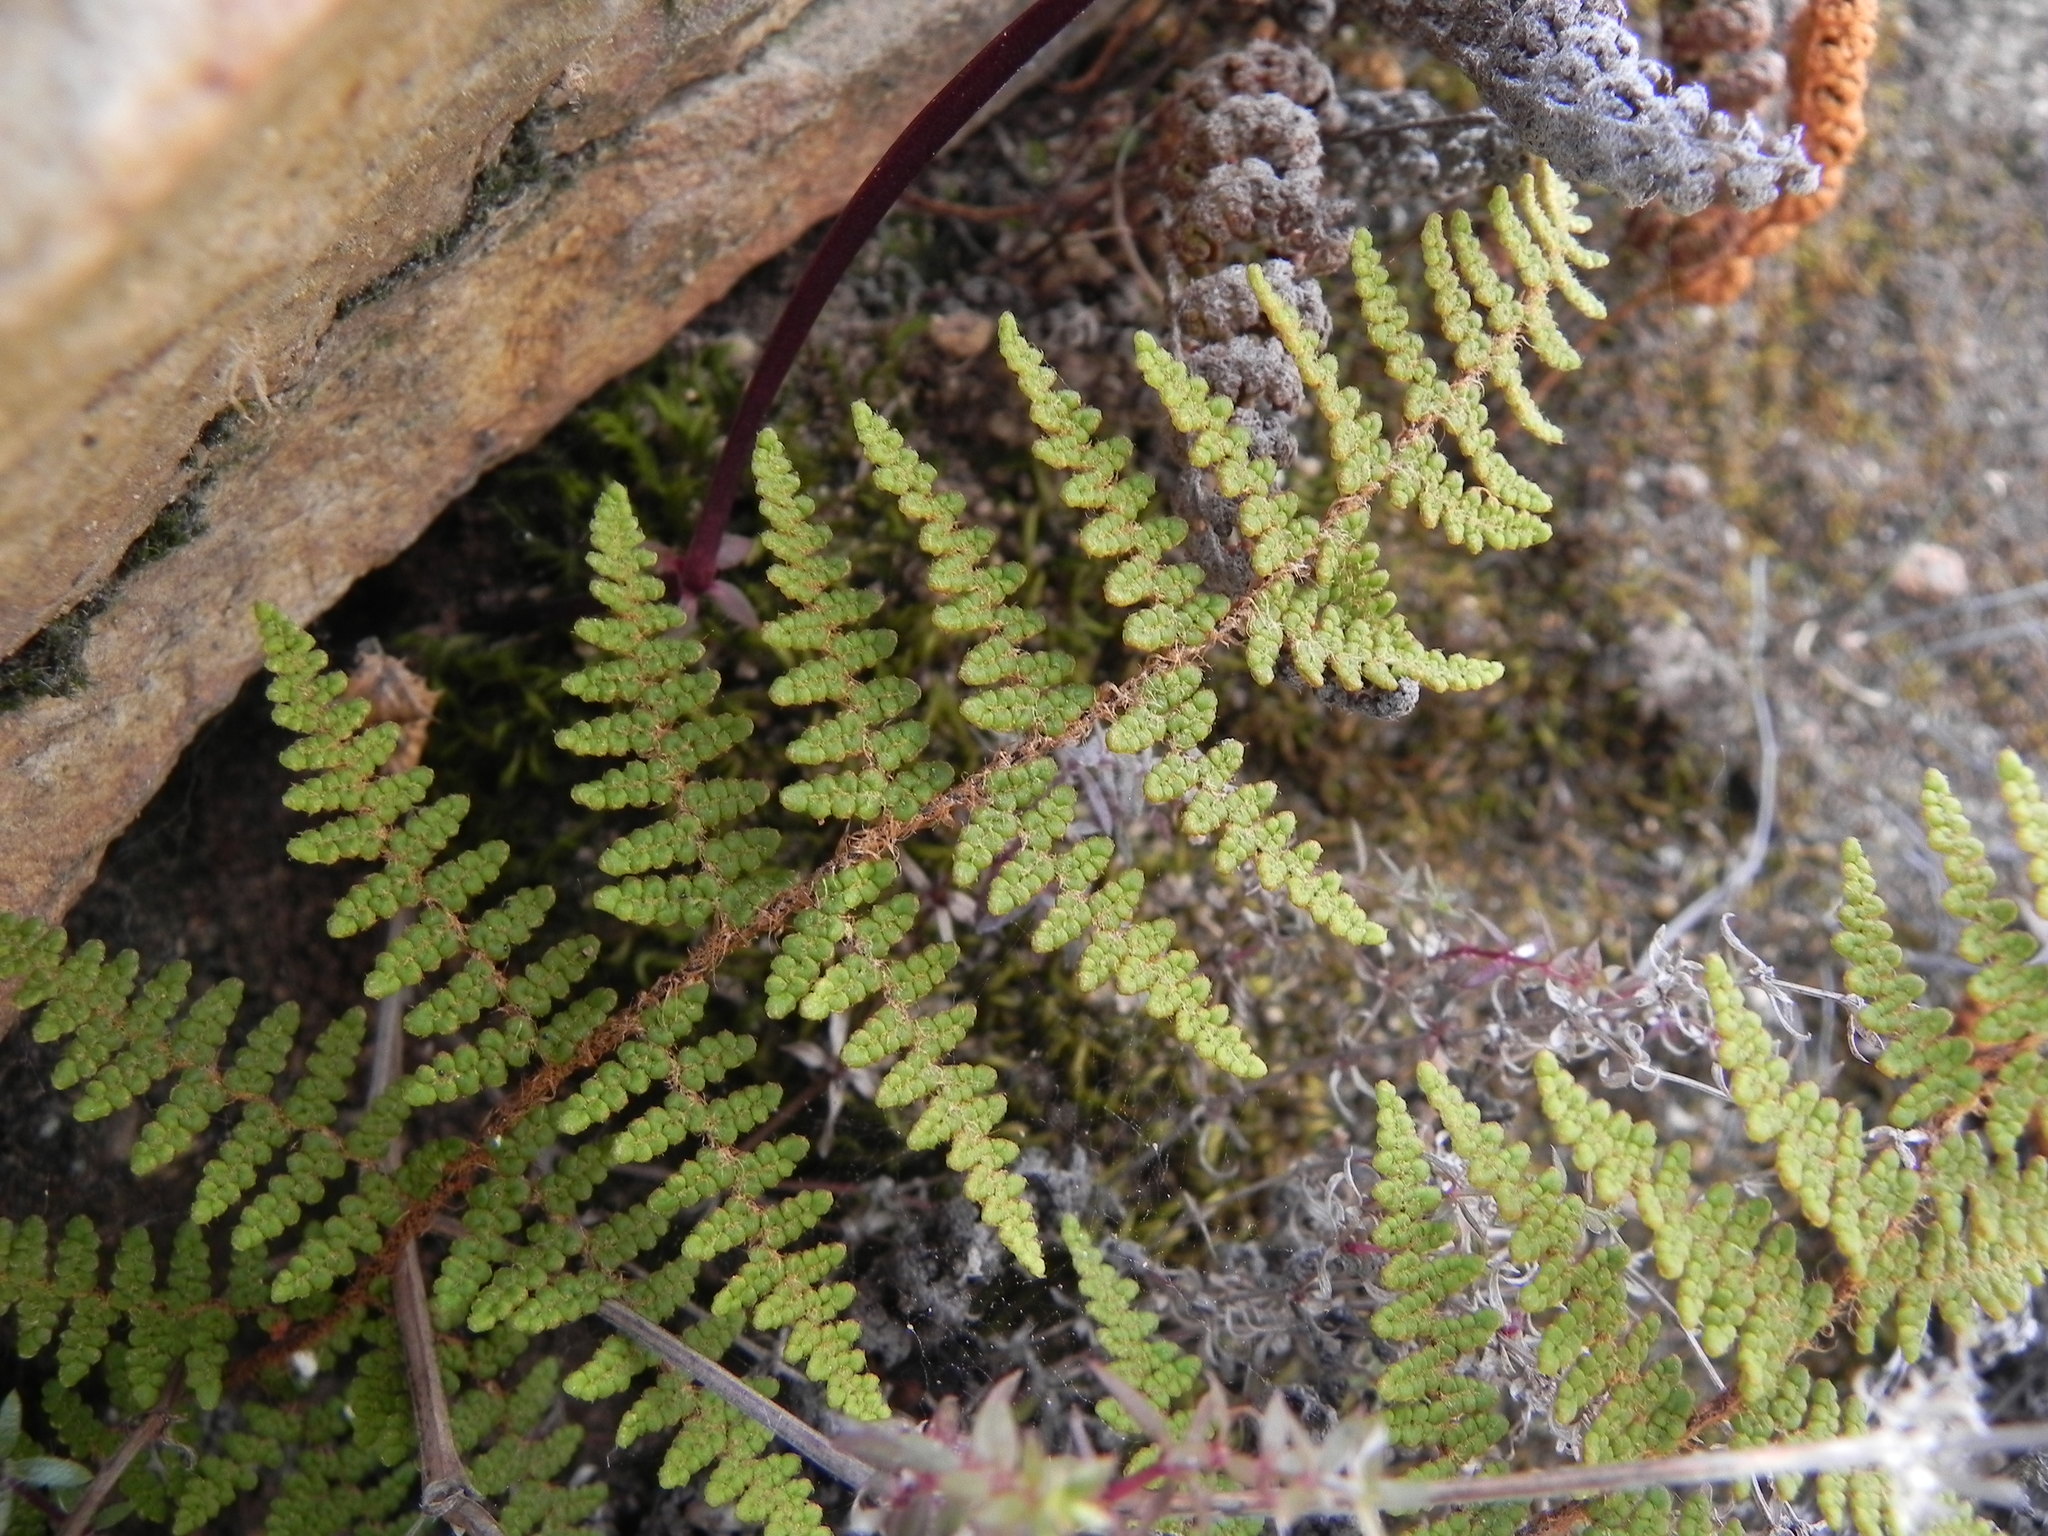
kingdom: Plantae
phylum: Tracheophyta
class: Polypodiopsida
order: Polypodiales
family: Pteridaceae
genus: Myriopteris
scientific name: Myriopteris clevelandii
